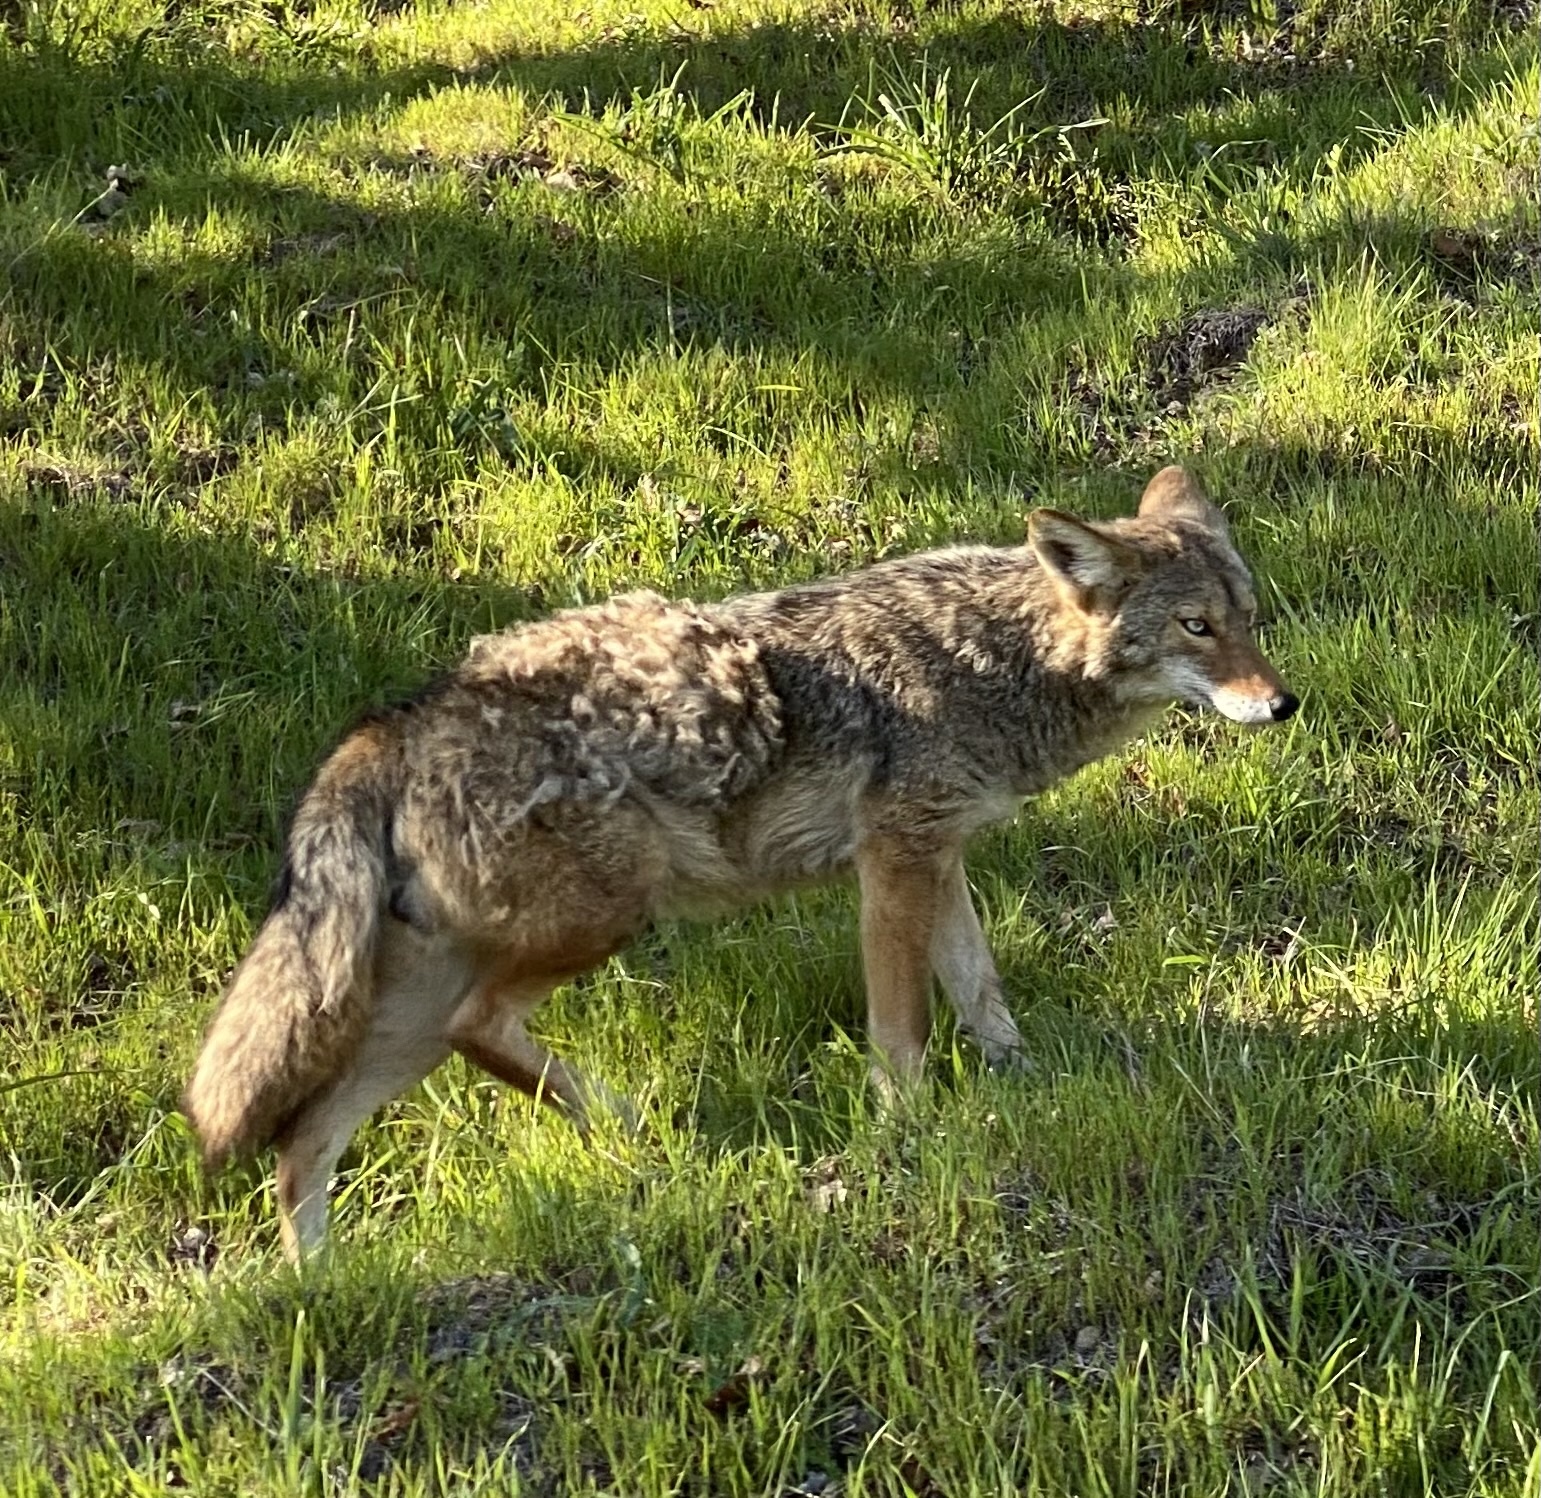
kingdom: Animalia
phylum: Chordata
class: Mammalia
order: Carnivora
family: Canidae
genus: Canis
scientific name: Canis latrans
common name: Coyote
